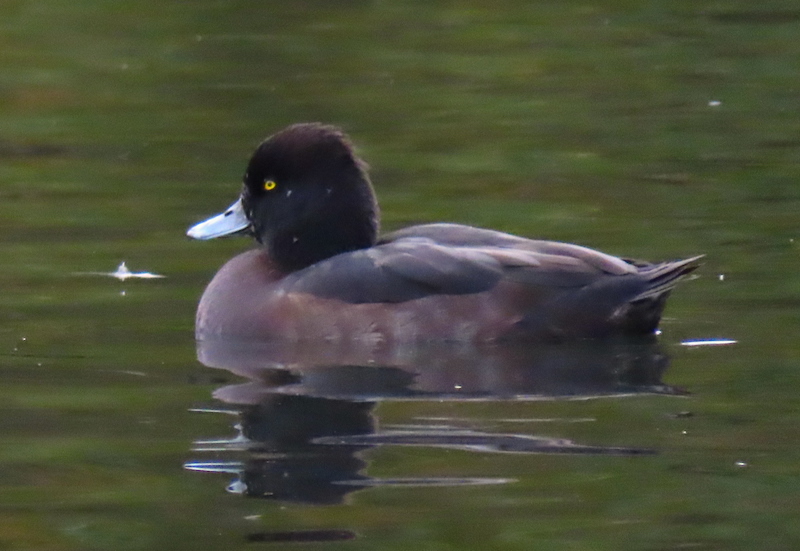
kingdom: Animalia
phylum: Chordata
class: Aves
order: Anseriformes
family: Anatidae
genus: Aythya
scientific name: Aythya fuligula
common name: Tufted duck
